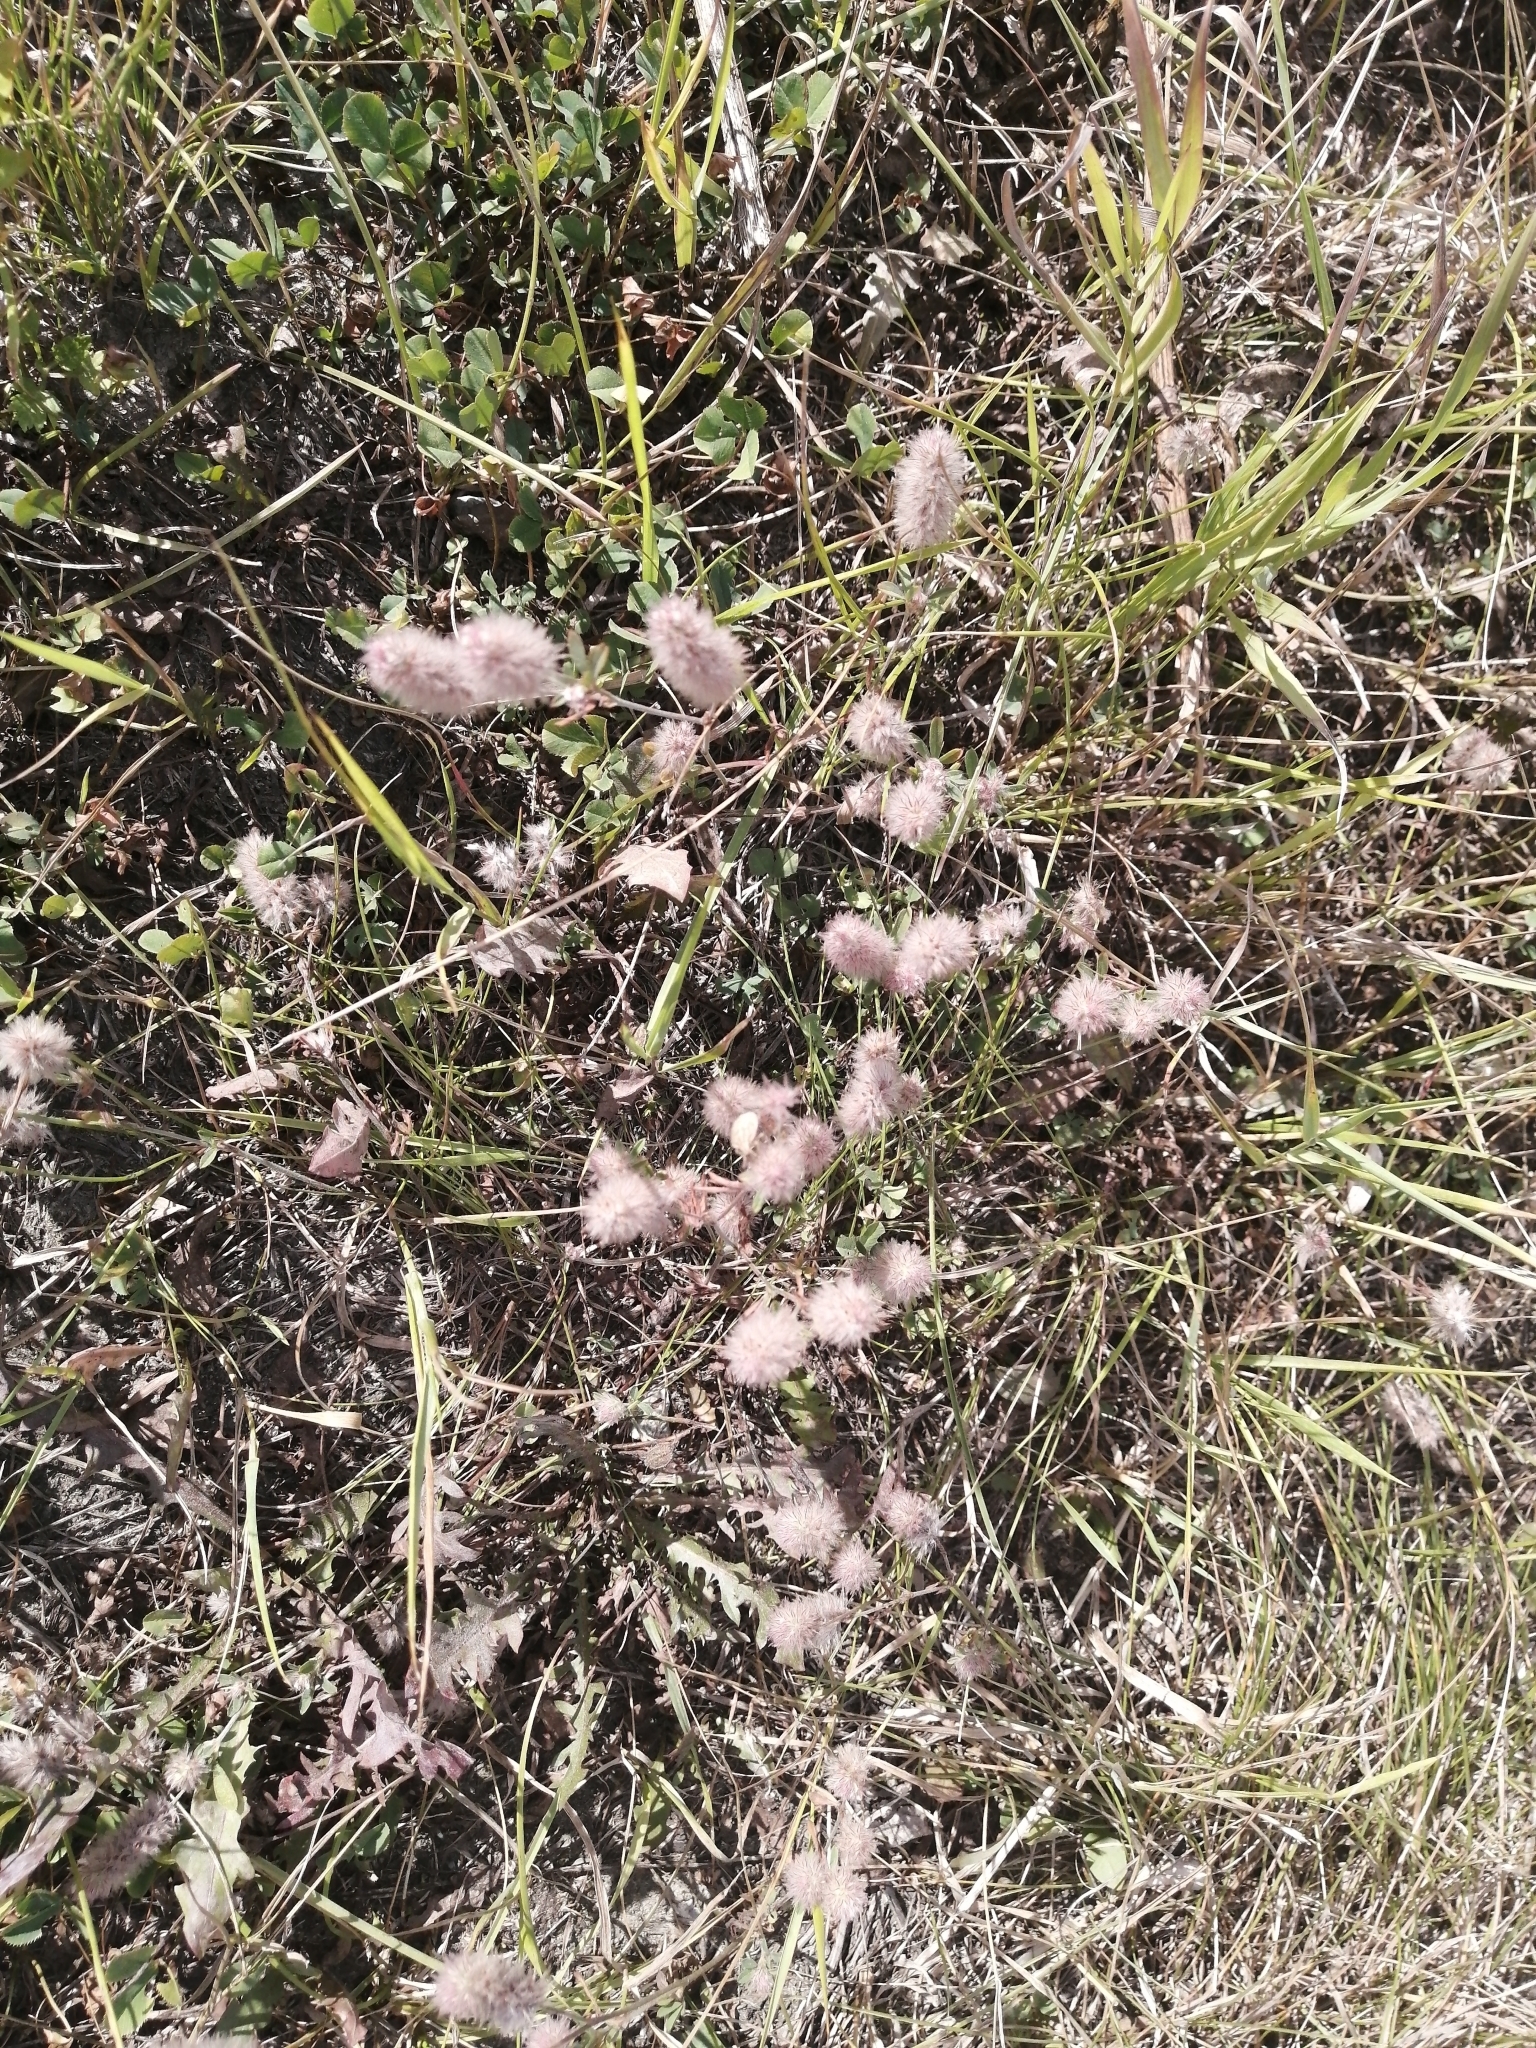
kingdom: Plantae
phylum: Tracheophyta
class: Magnoliopsida
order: Fabales
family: Fabaceae
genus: Trifolium
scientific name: Trifolium arvense
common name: Hare's-foot clover
